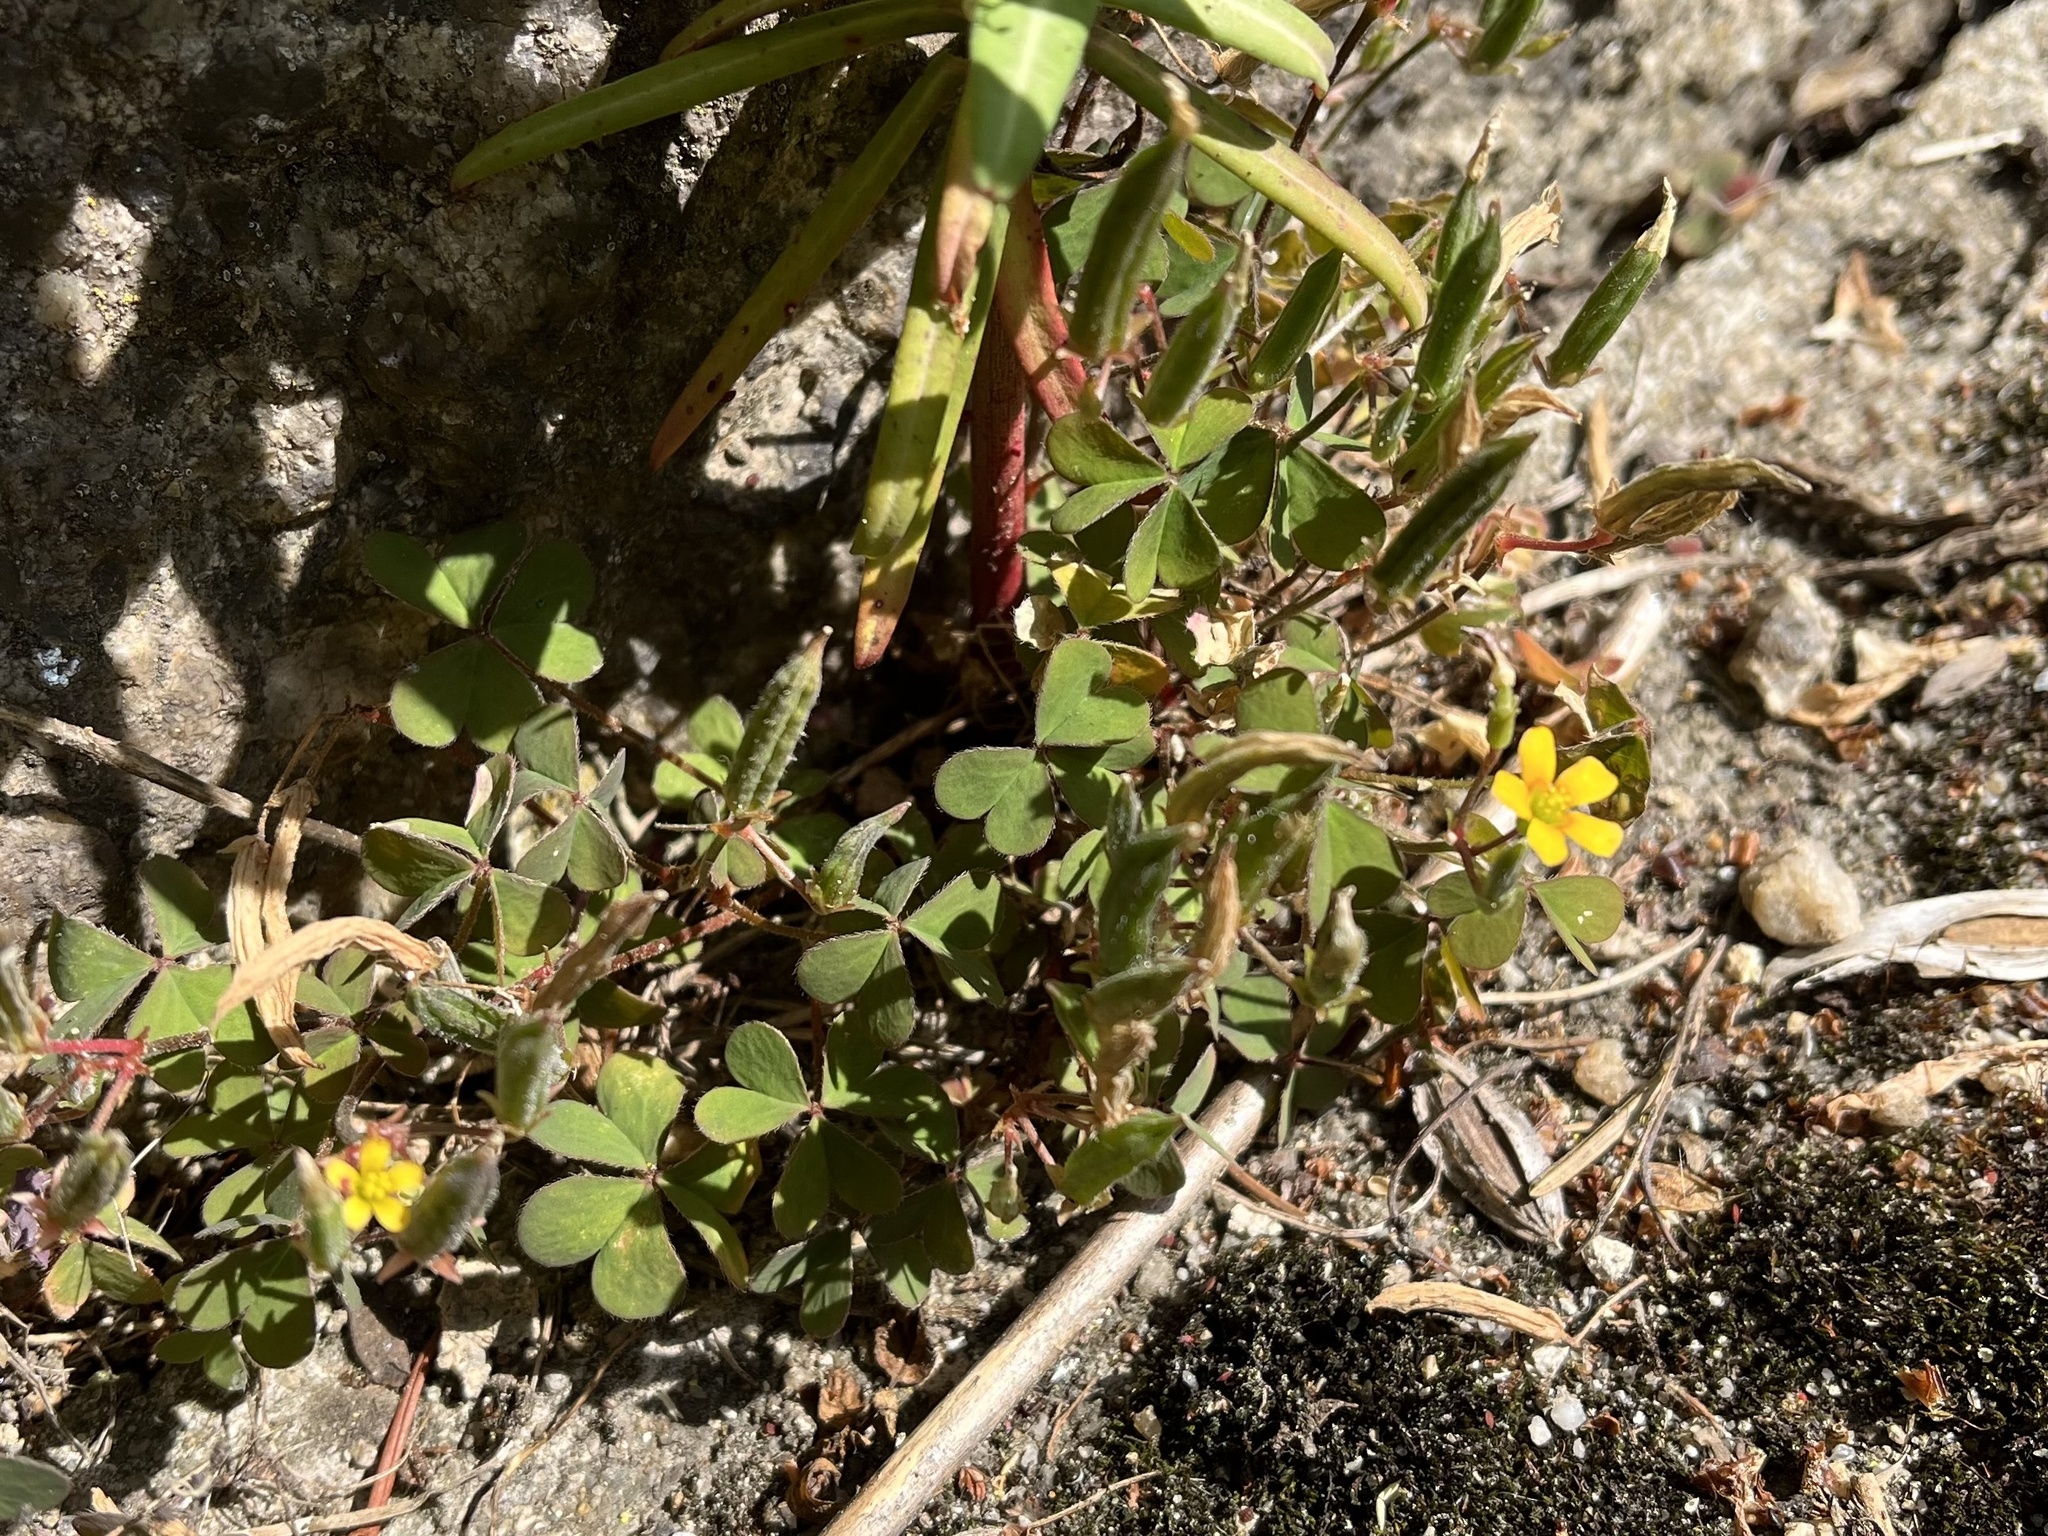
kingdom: Plantae
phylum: Tracheophyta
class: Magnoliopsida
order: Oxalidales
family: Oxalidaceae
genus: Oxalis
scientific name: Oxalis corniculata
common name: Procumbent yellow-sorrel
